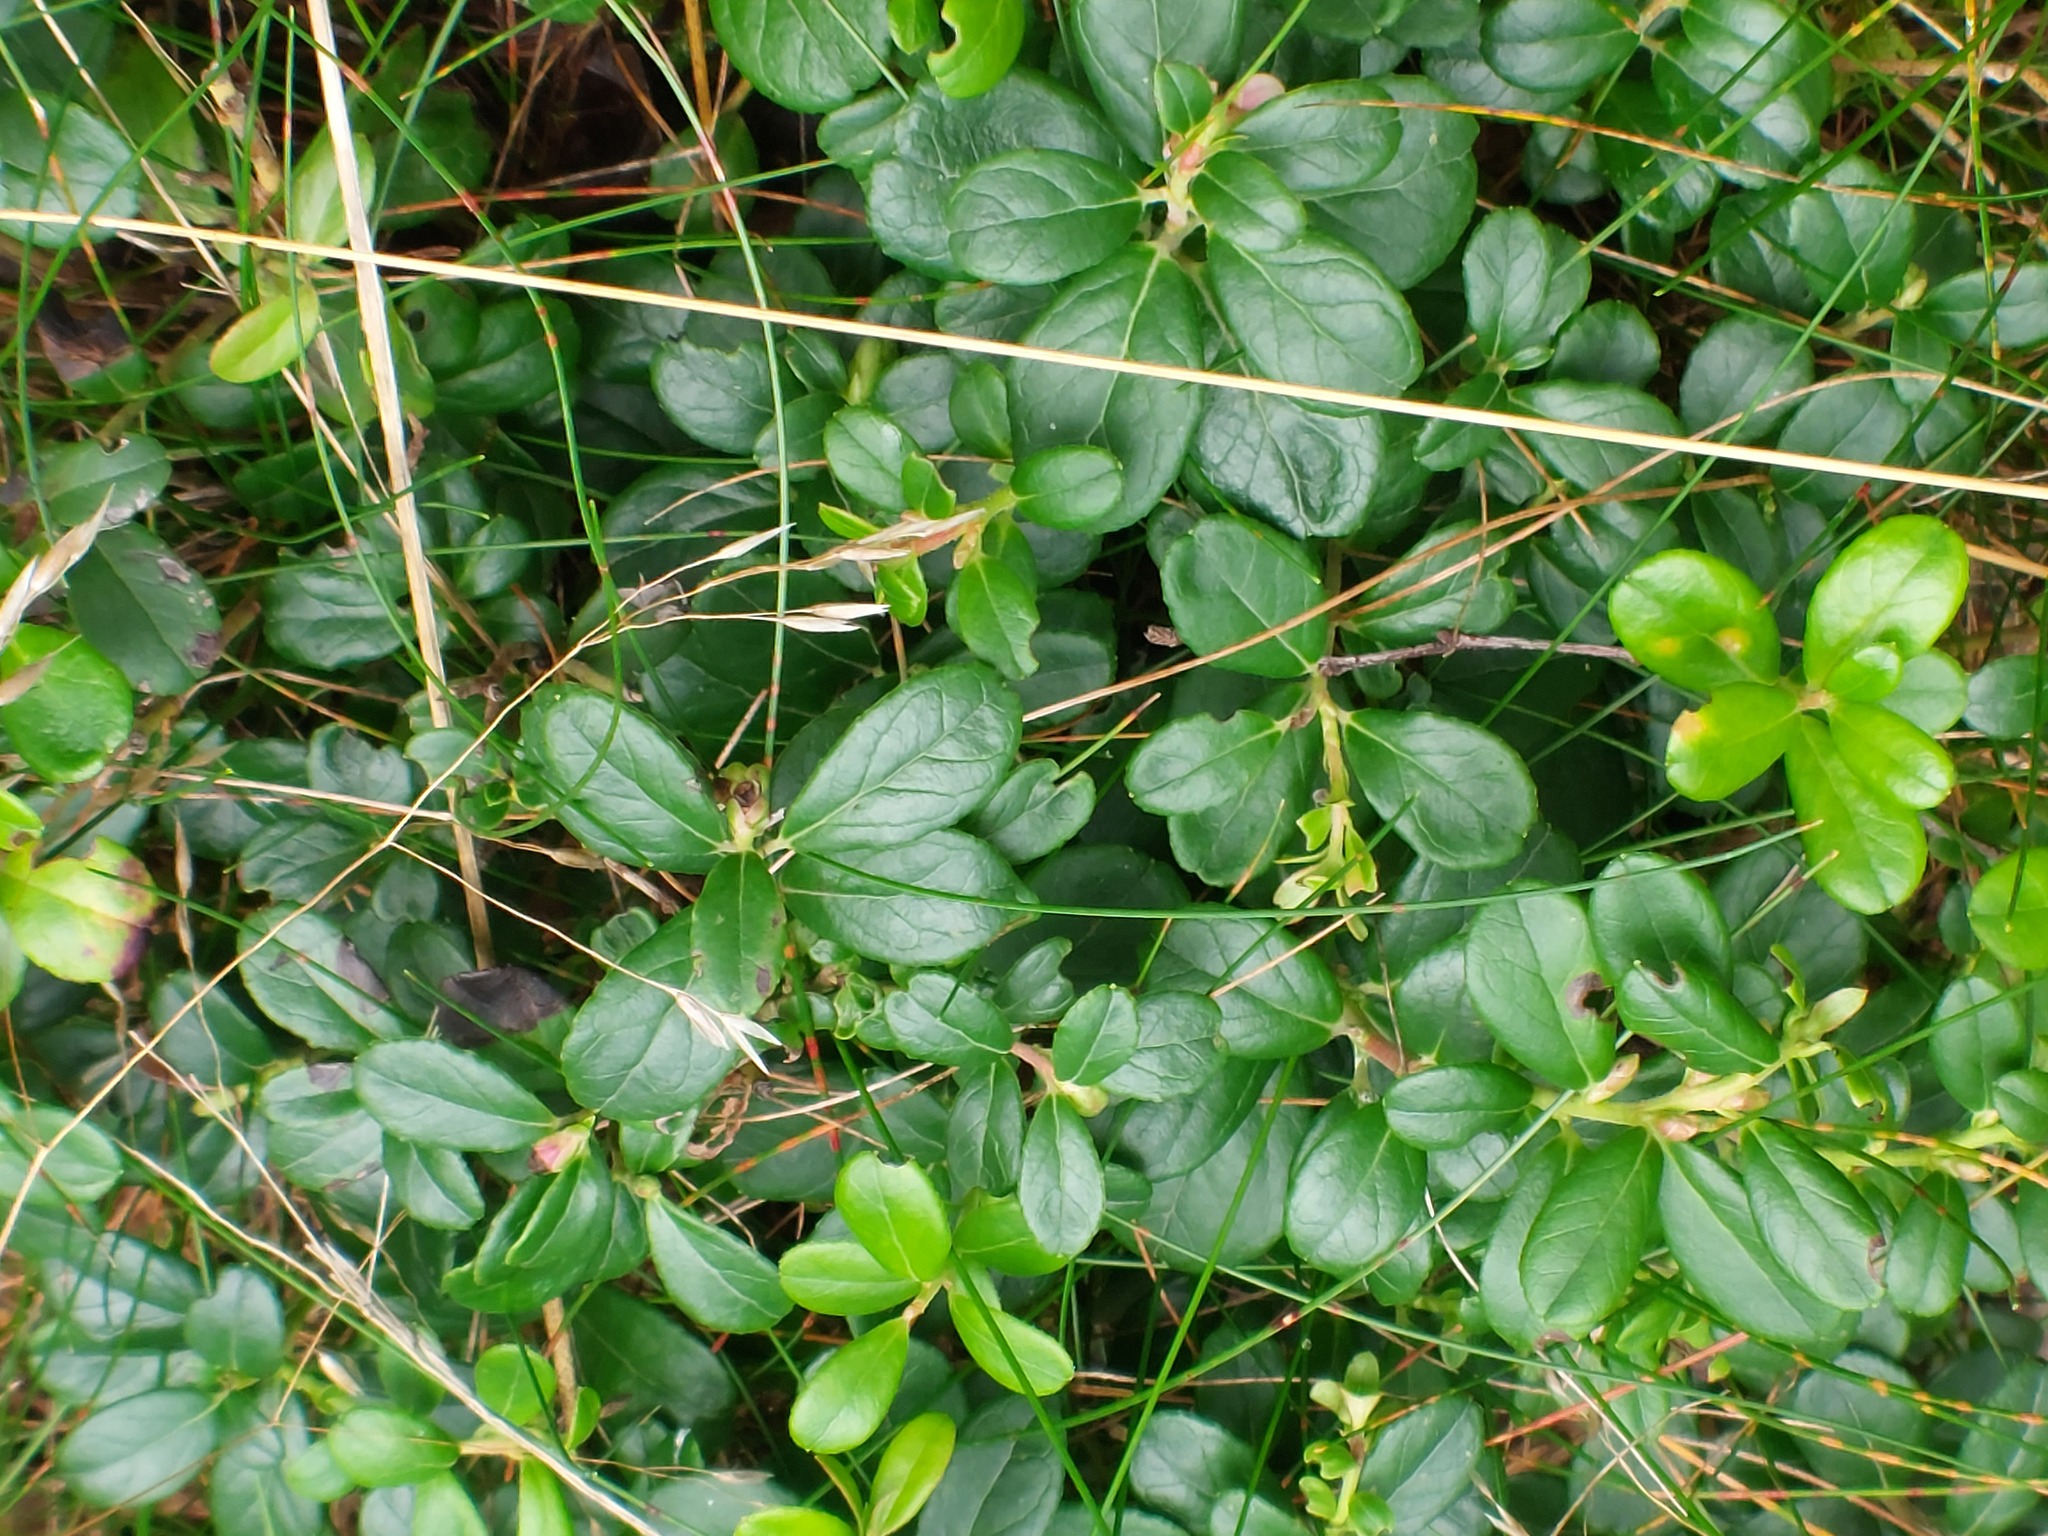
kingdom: Plantae
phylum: Tracheophyta
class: Magnoliopsida
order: Ericales
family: Ericaceae
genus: Vaccinium
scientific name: Vaccinium vitis-idaea
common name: Cowberry
